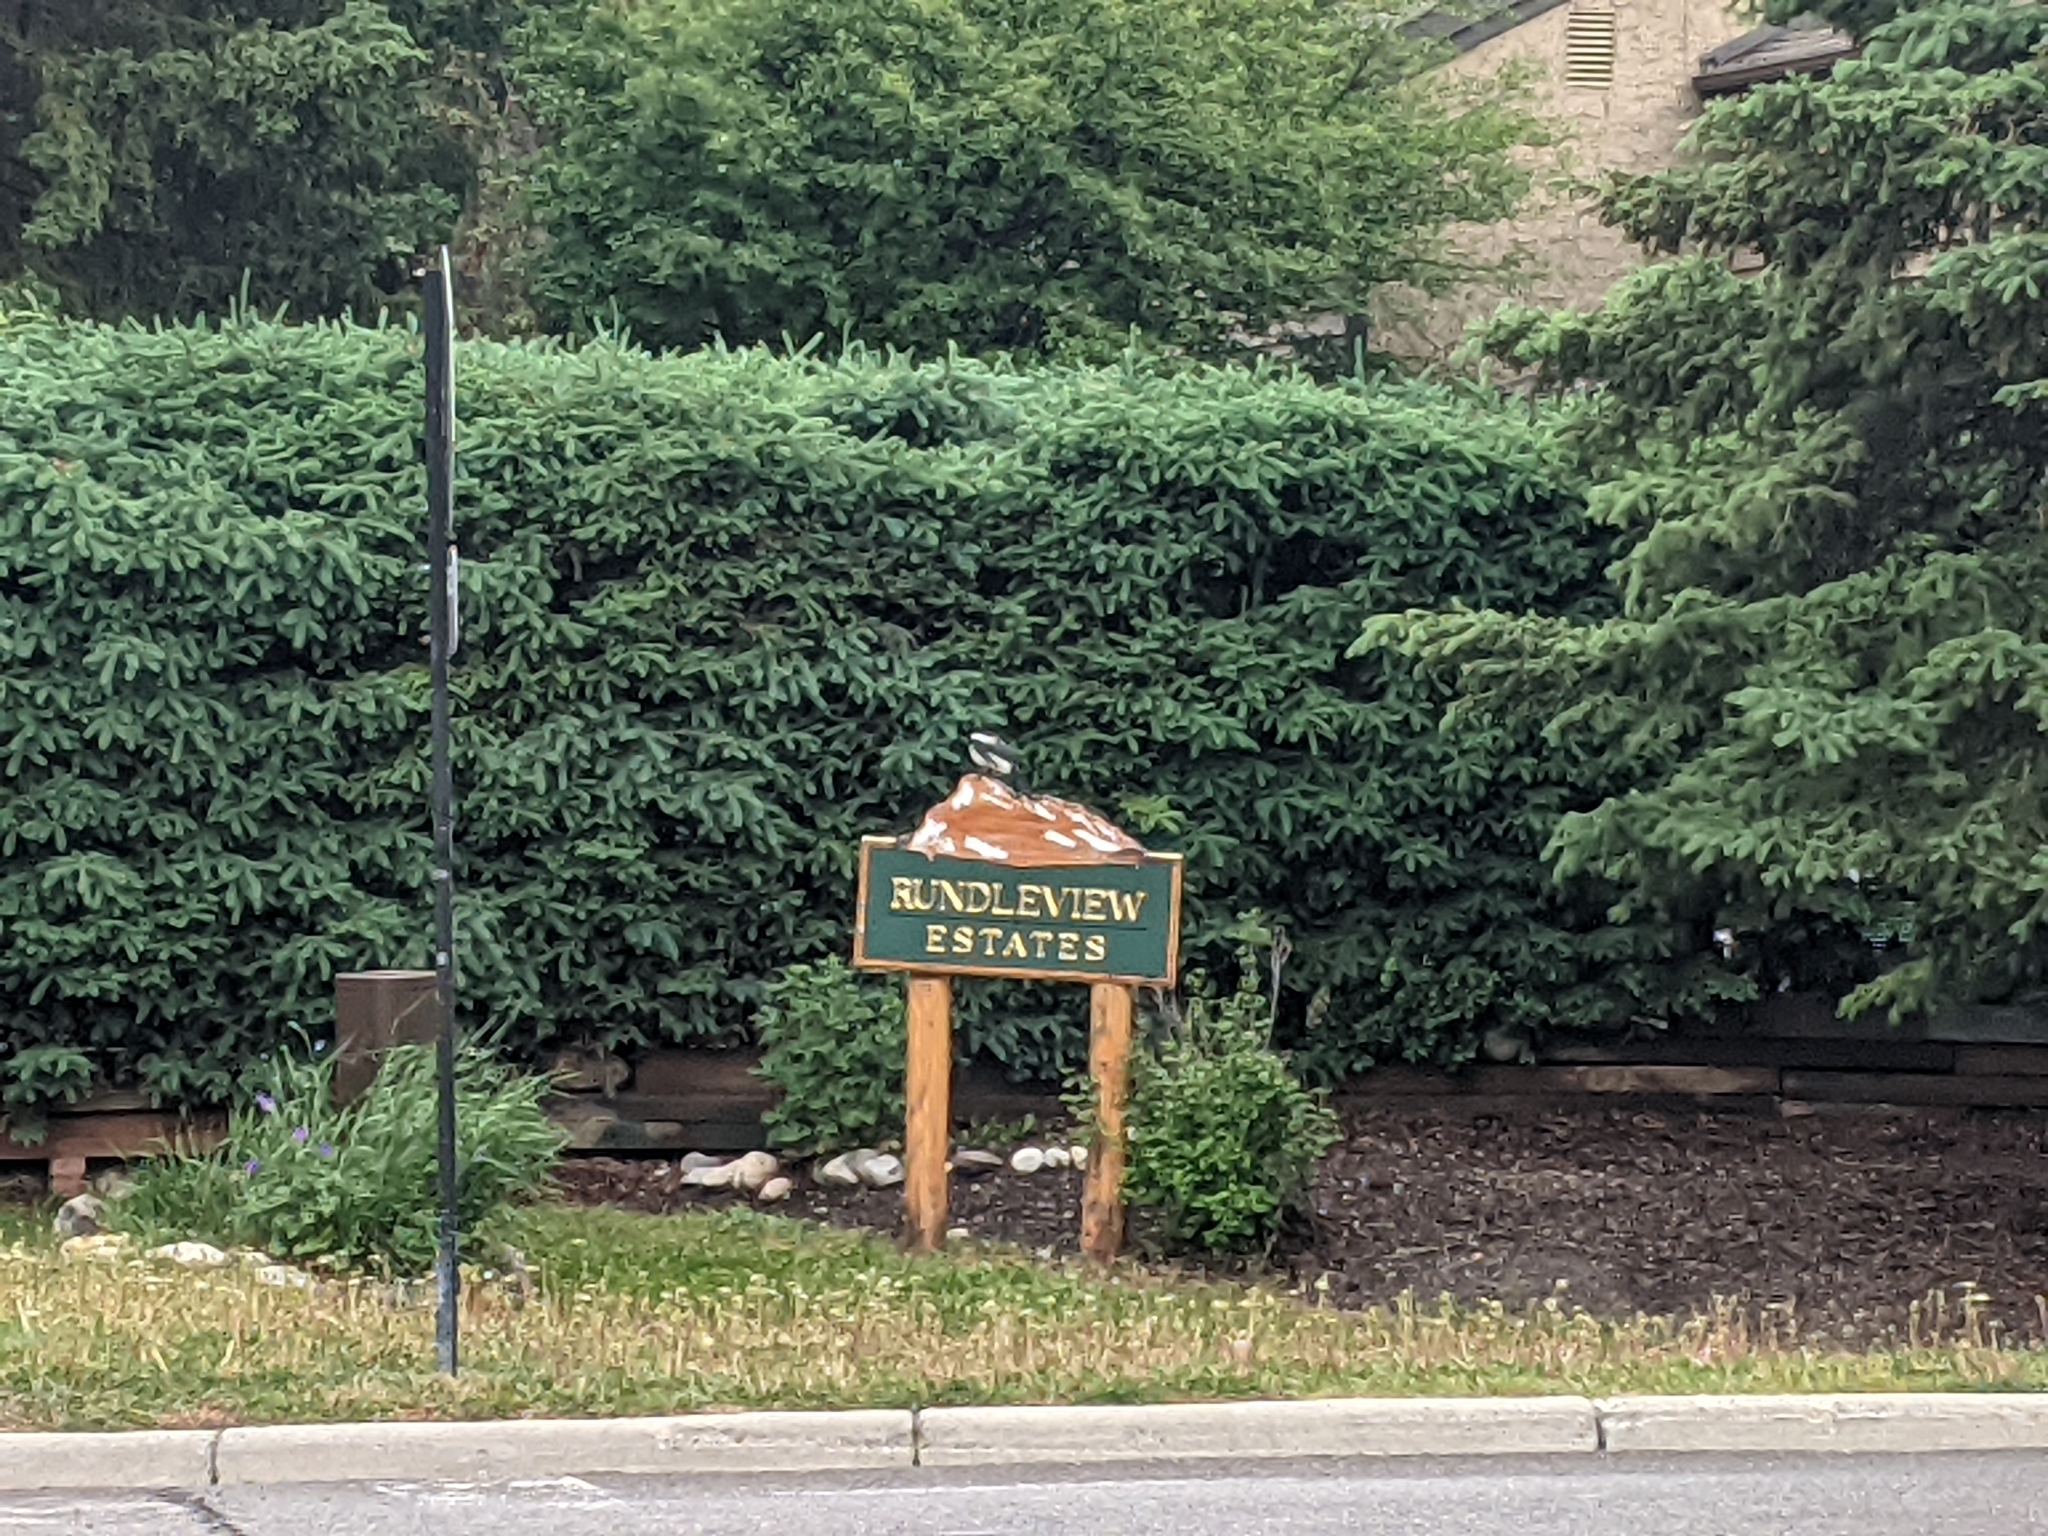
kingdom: Animalia
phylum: Chordata
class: Aves
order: Passeriformes
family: Corvidae
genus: Pica
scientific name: Pica hudsonia
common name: Black-billed magpie
